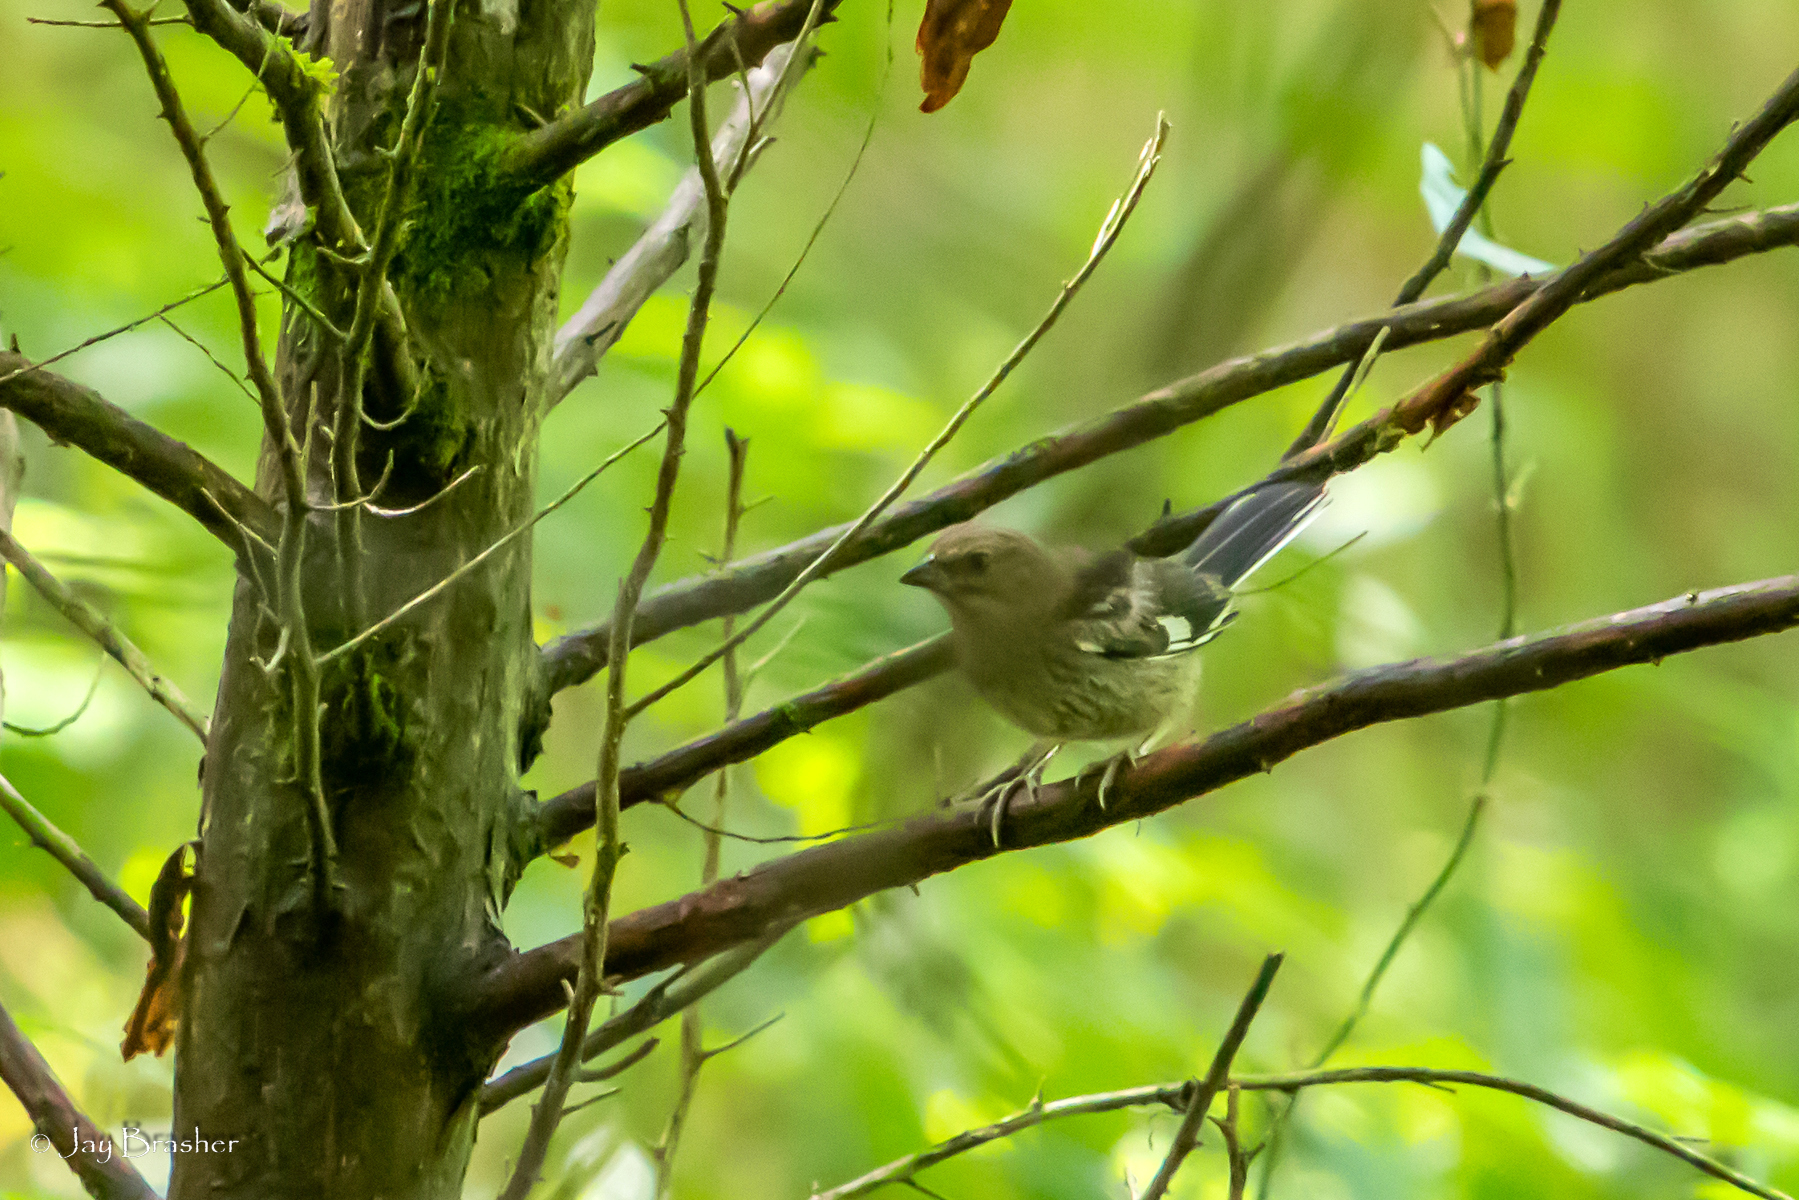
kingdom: Animalia
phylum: Chordata
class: Aves
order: Passeriformes
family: Passerellidae
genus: Pipilo
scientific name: Pipilo erythrophthalmus
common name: Eastern towhee
